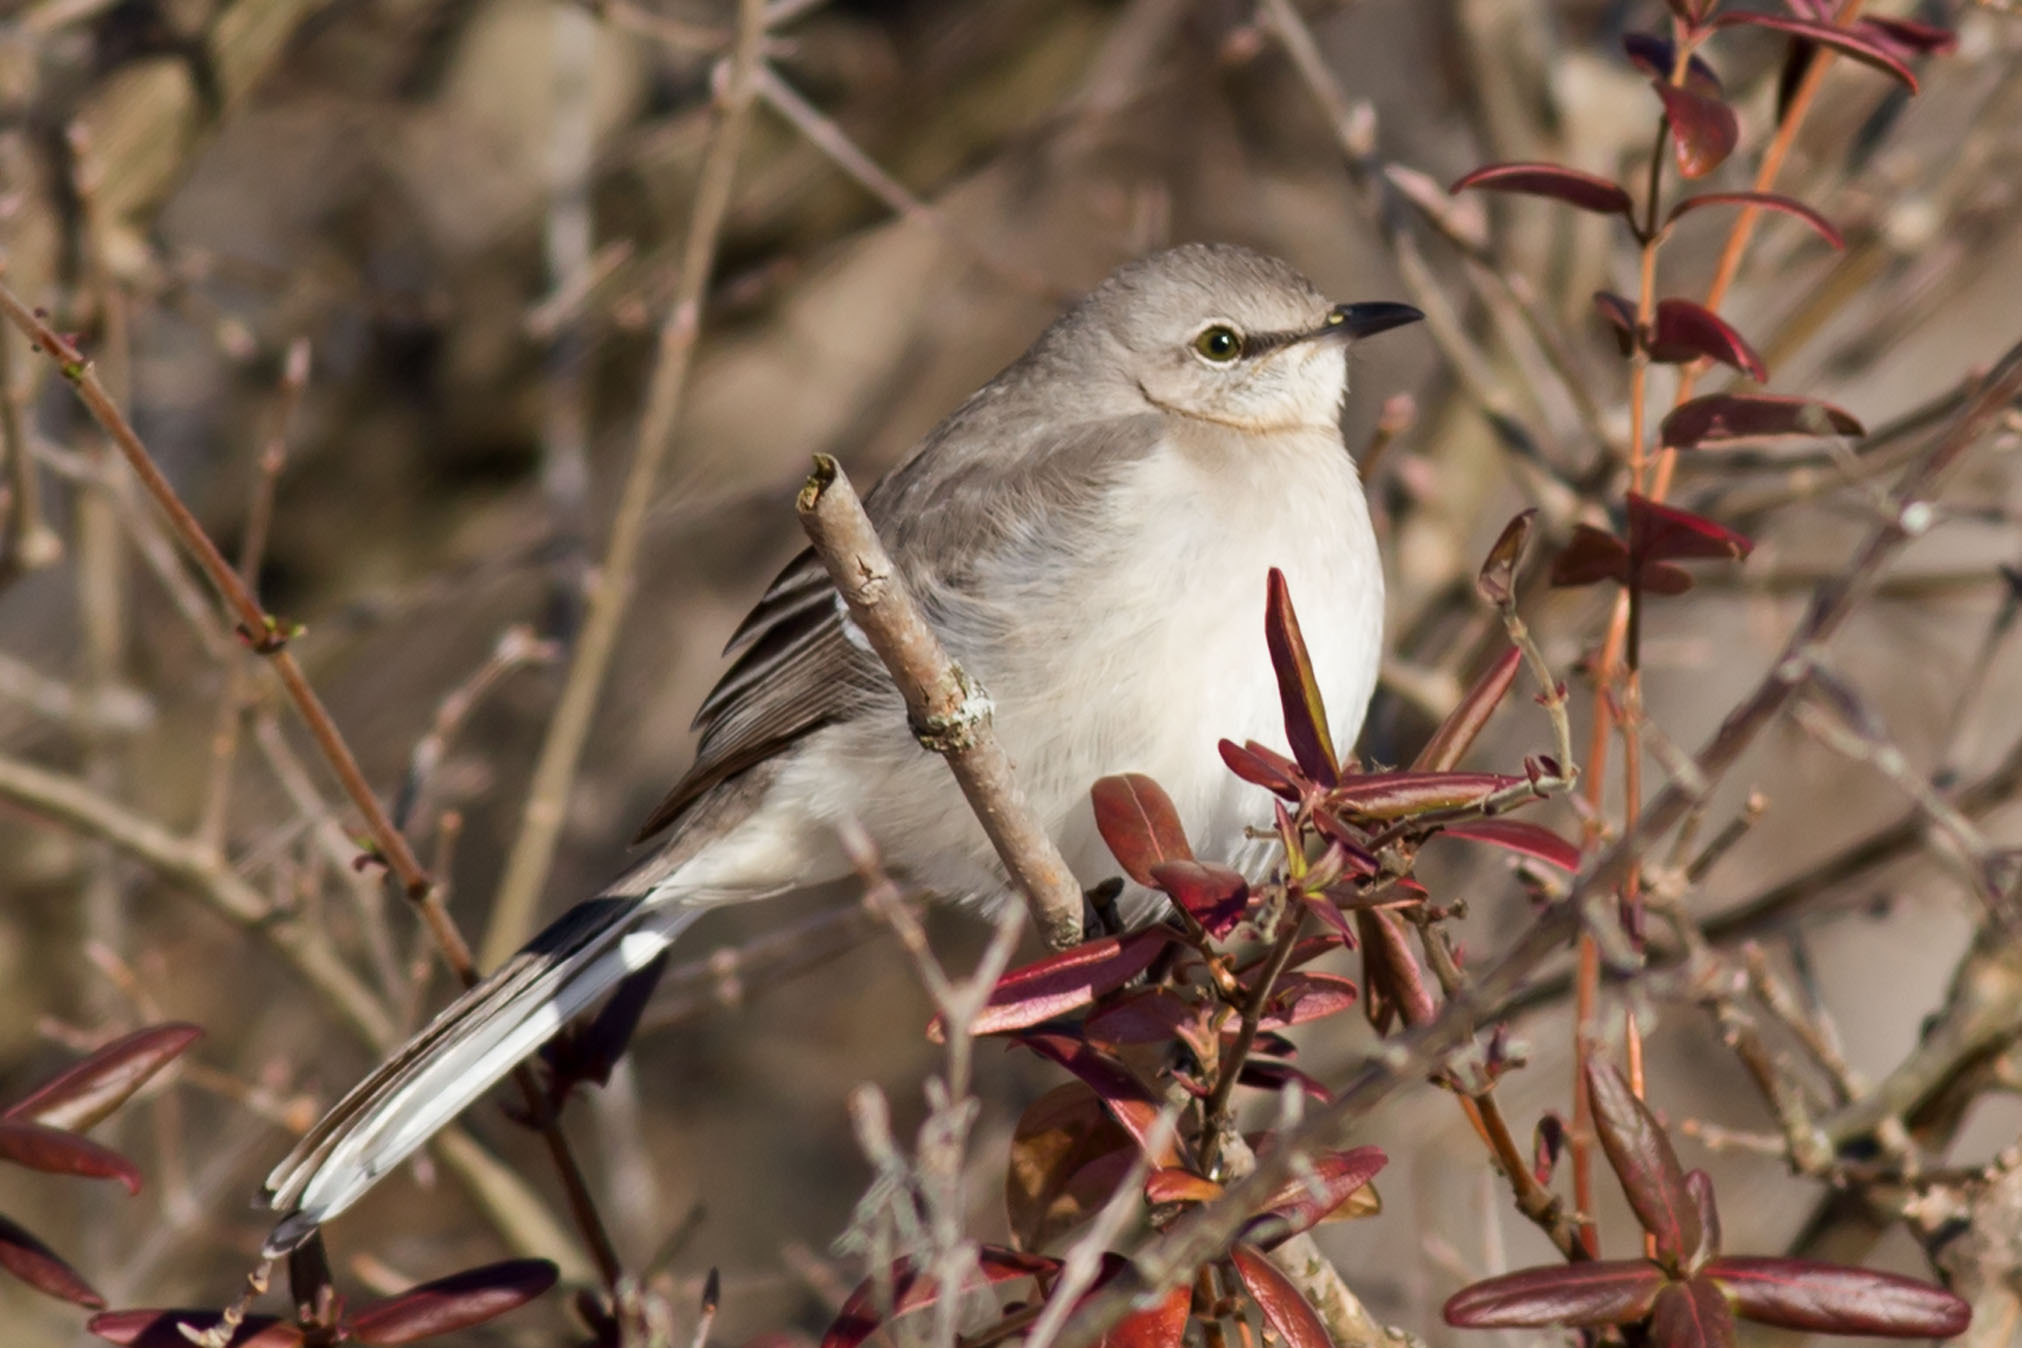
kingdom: Animalia
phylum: Chordata
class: Aves
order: Passeriformes
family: Mimidae
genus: Mimus
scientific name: Mimus polyglottos
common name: Northern mockingbird
